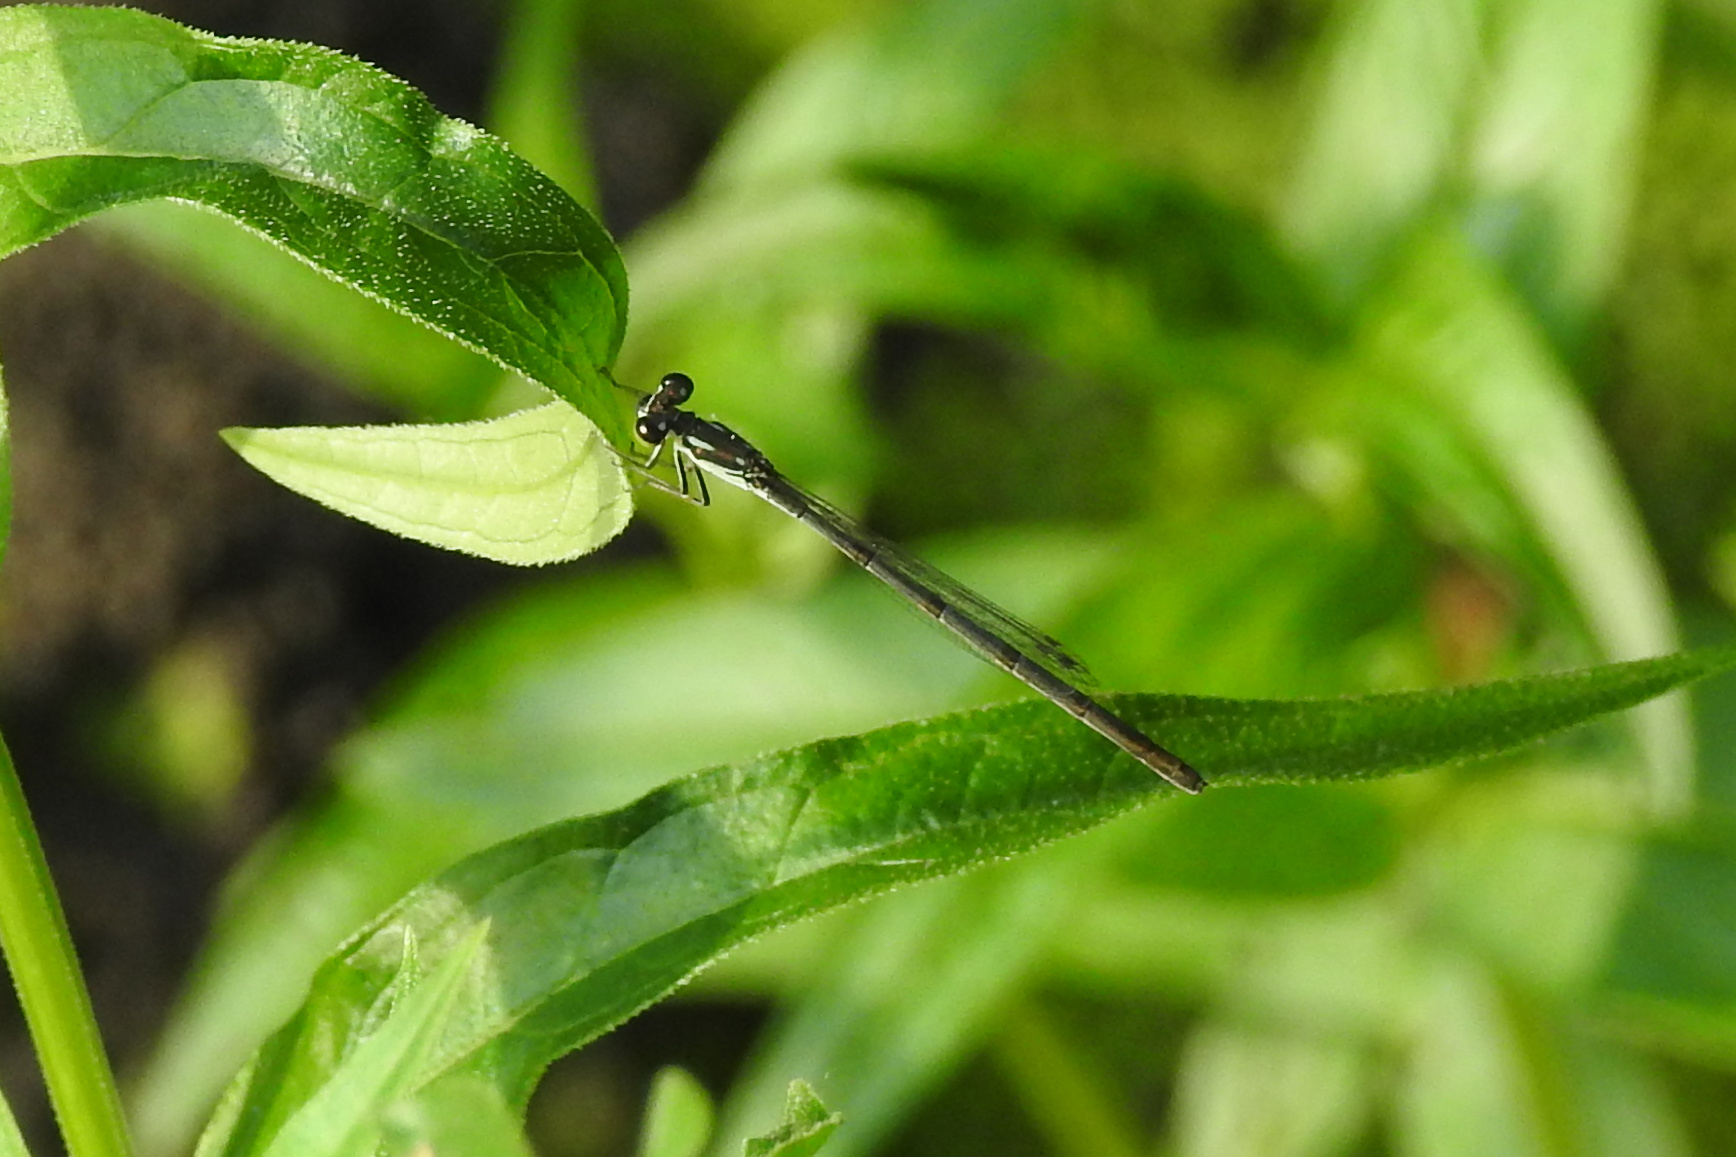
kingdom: Animalia
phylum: Arthropoda
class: Insecta
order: Odonata
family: Coenagrionidae
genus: Ischnura
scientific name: Ischnura posita
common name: Fragile forktail
